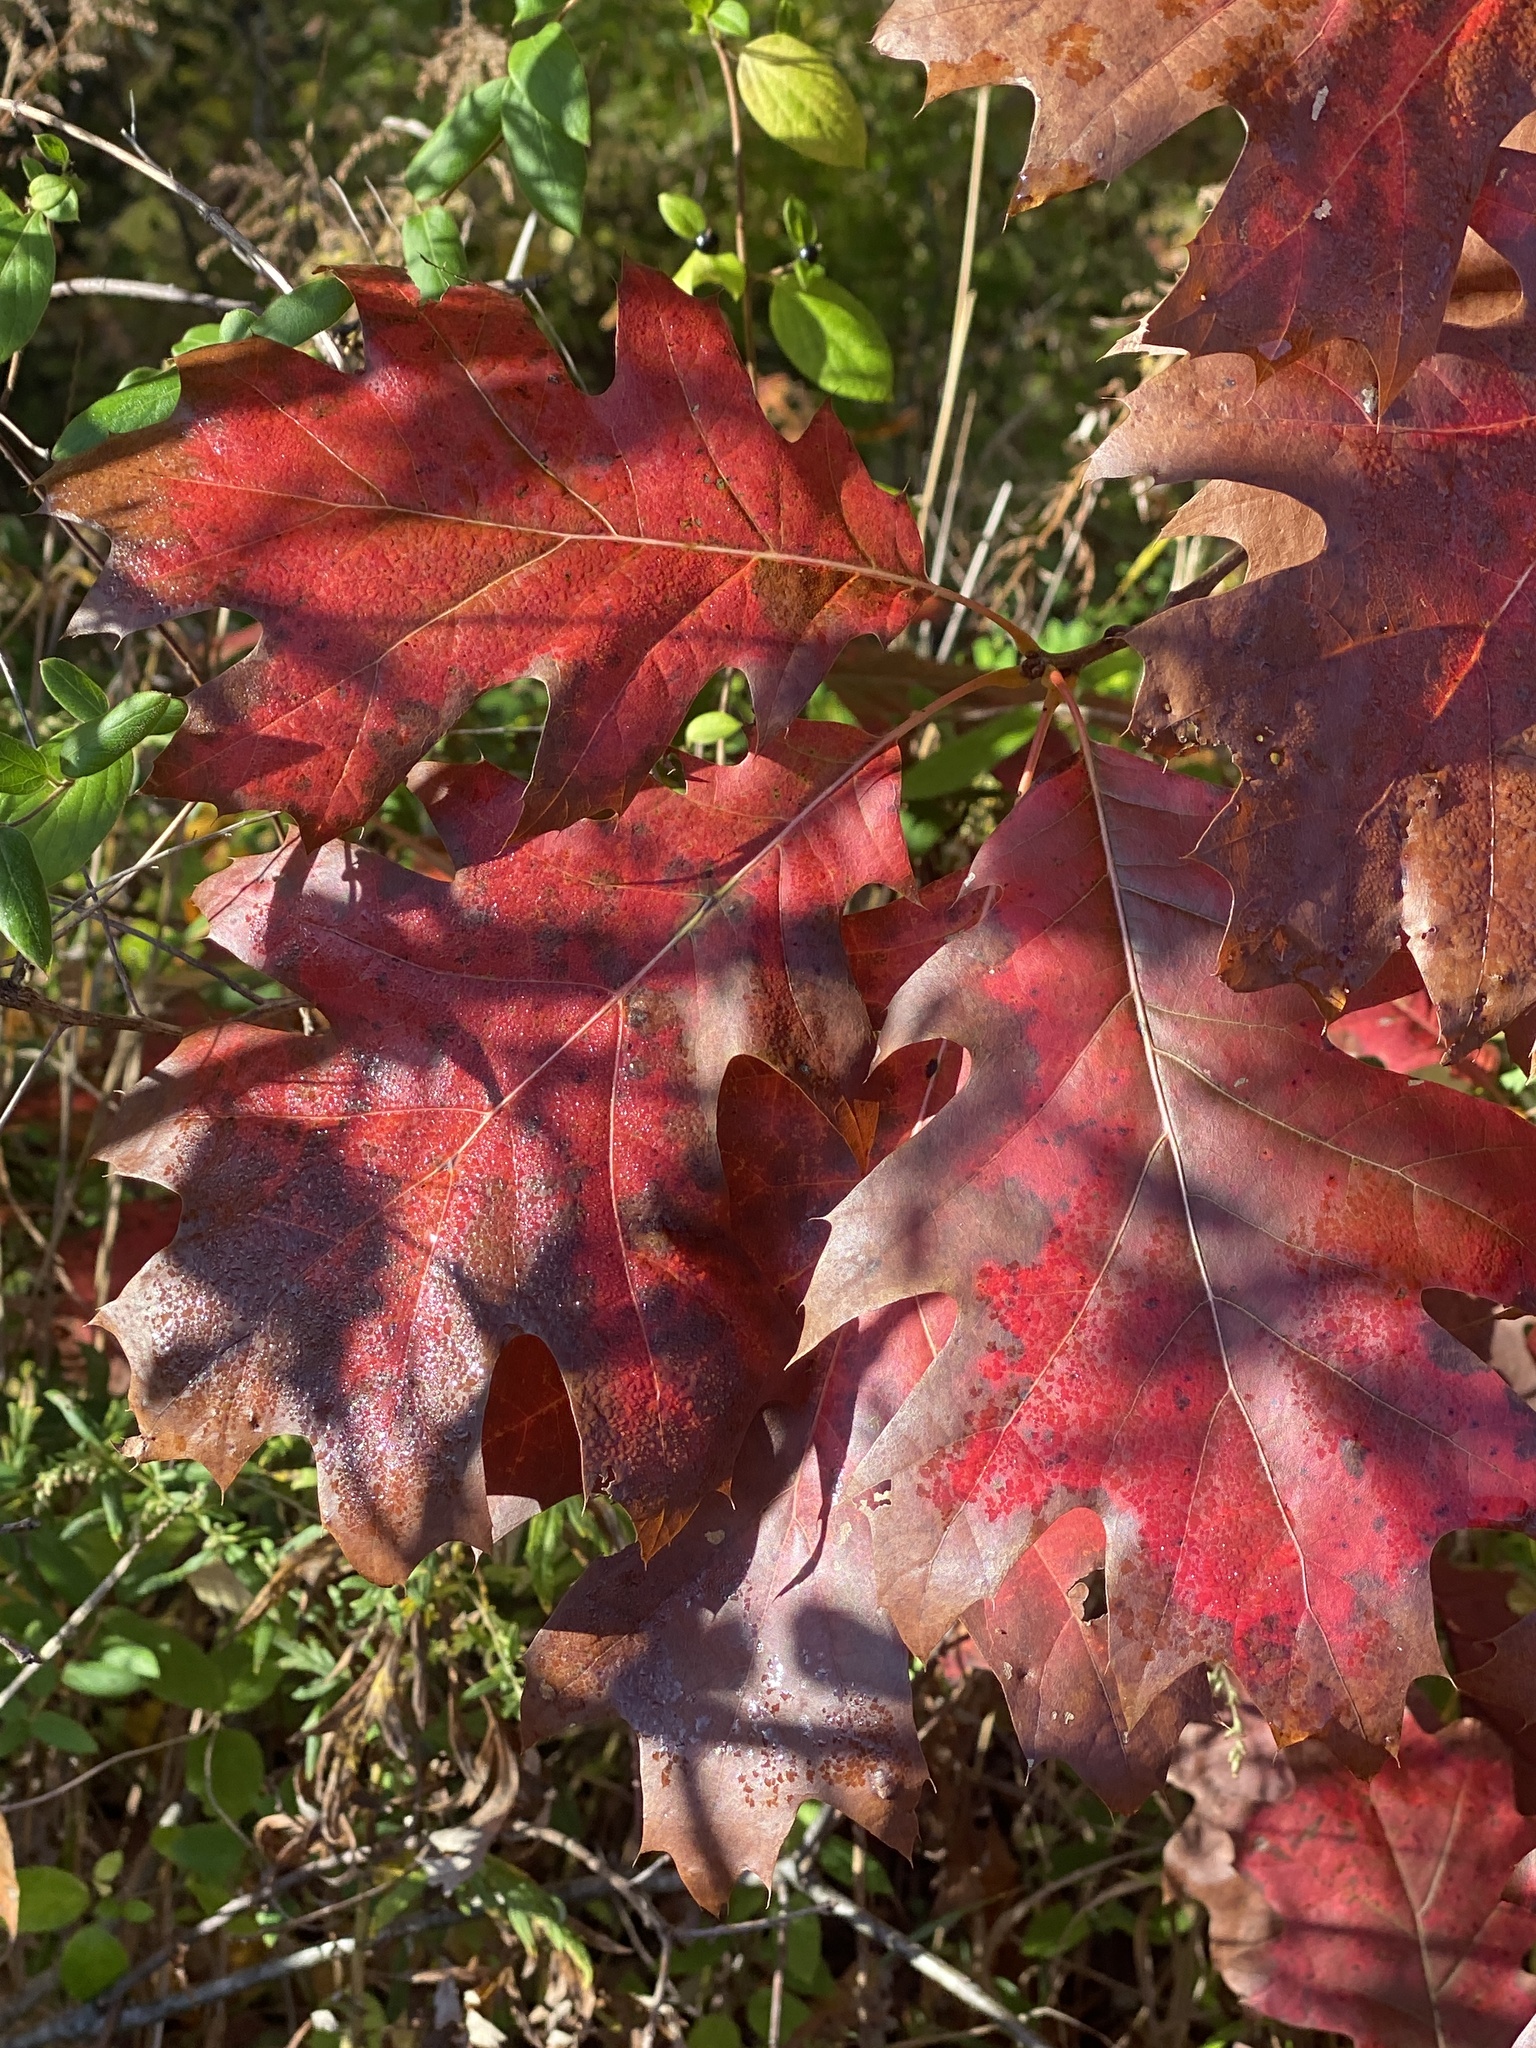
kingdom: Plantae
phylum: Tracheophyta
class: Magnoliopsida
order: Fagales
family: Fagaceae
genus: Quercus
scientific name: Quercus rubra
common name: Red oak
